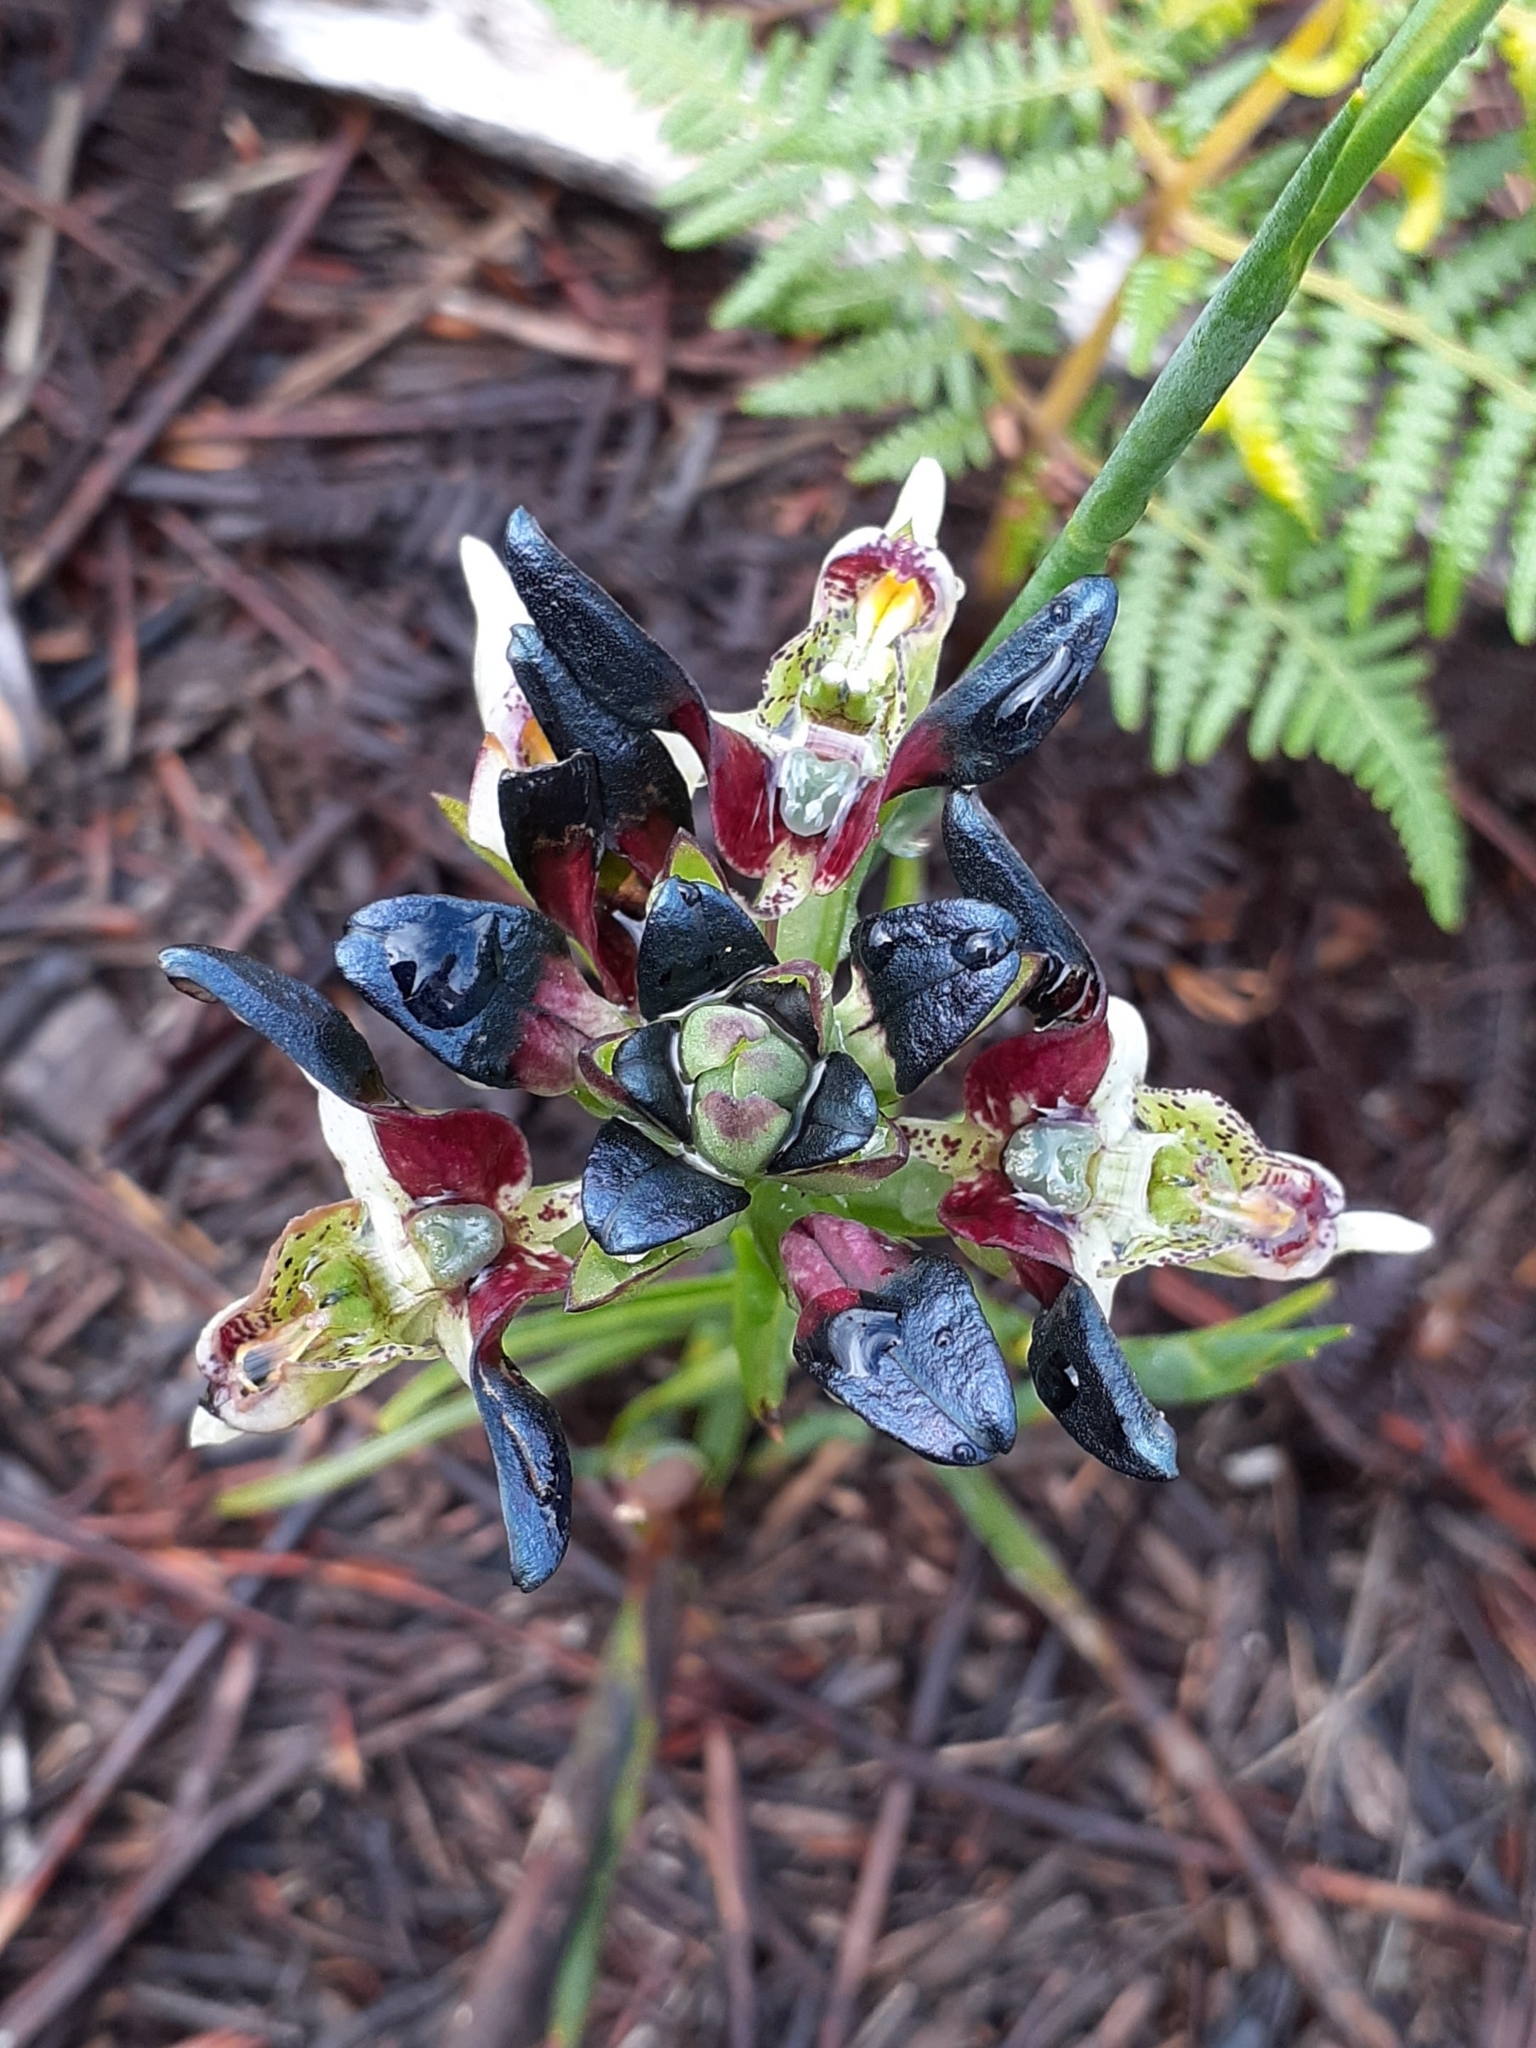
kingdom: Plantae
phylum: Tracheophyta
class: Liliopsida
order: Asparagales
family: Orchidaceae
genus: Disa
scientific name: Disa atricapilla
